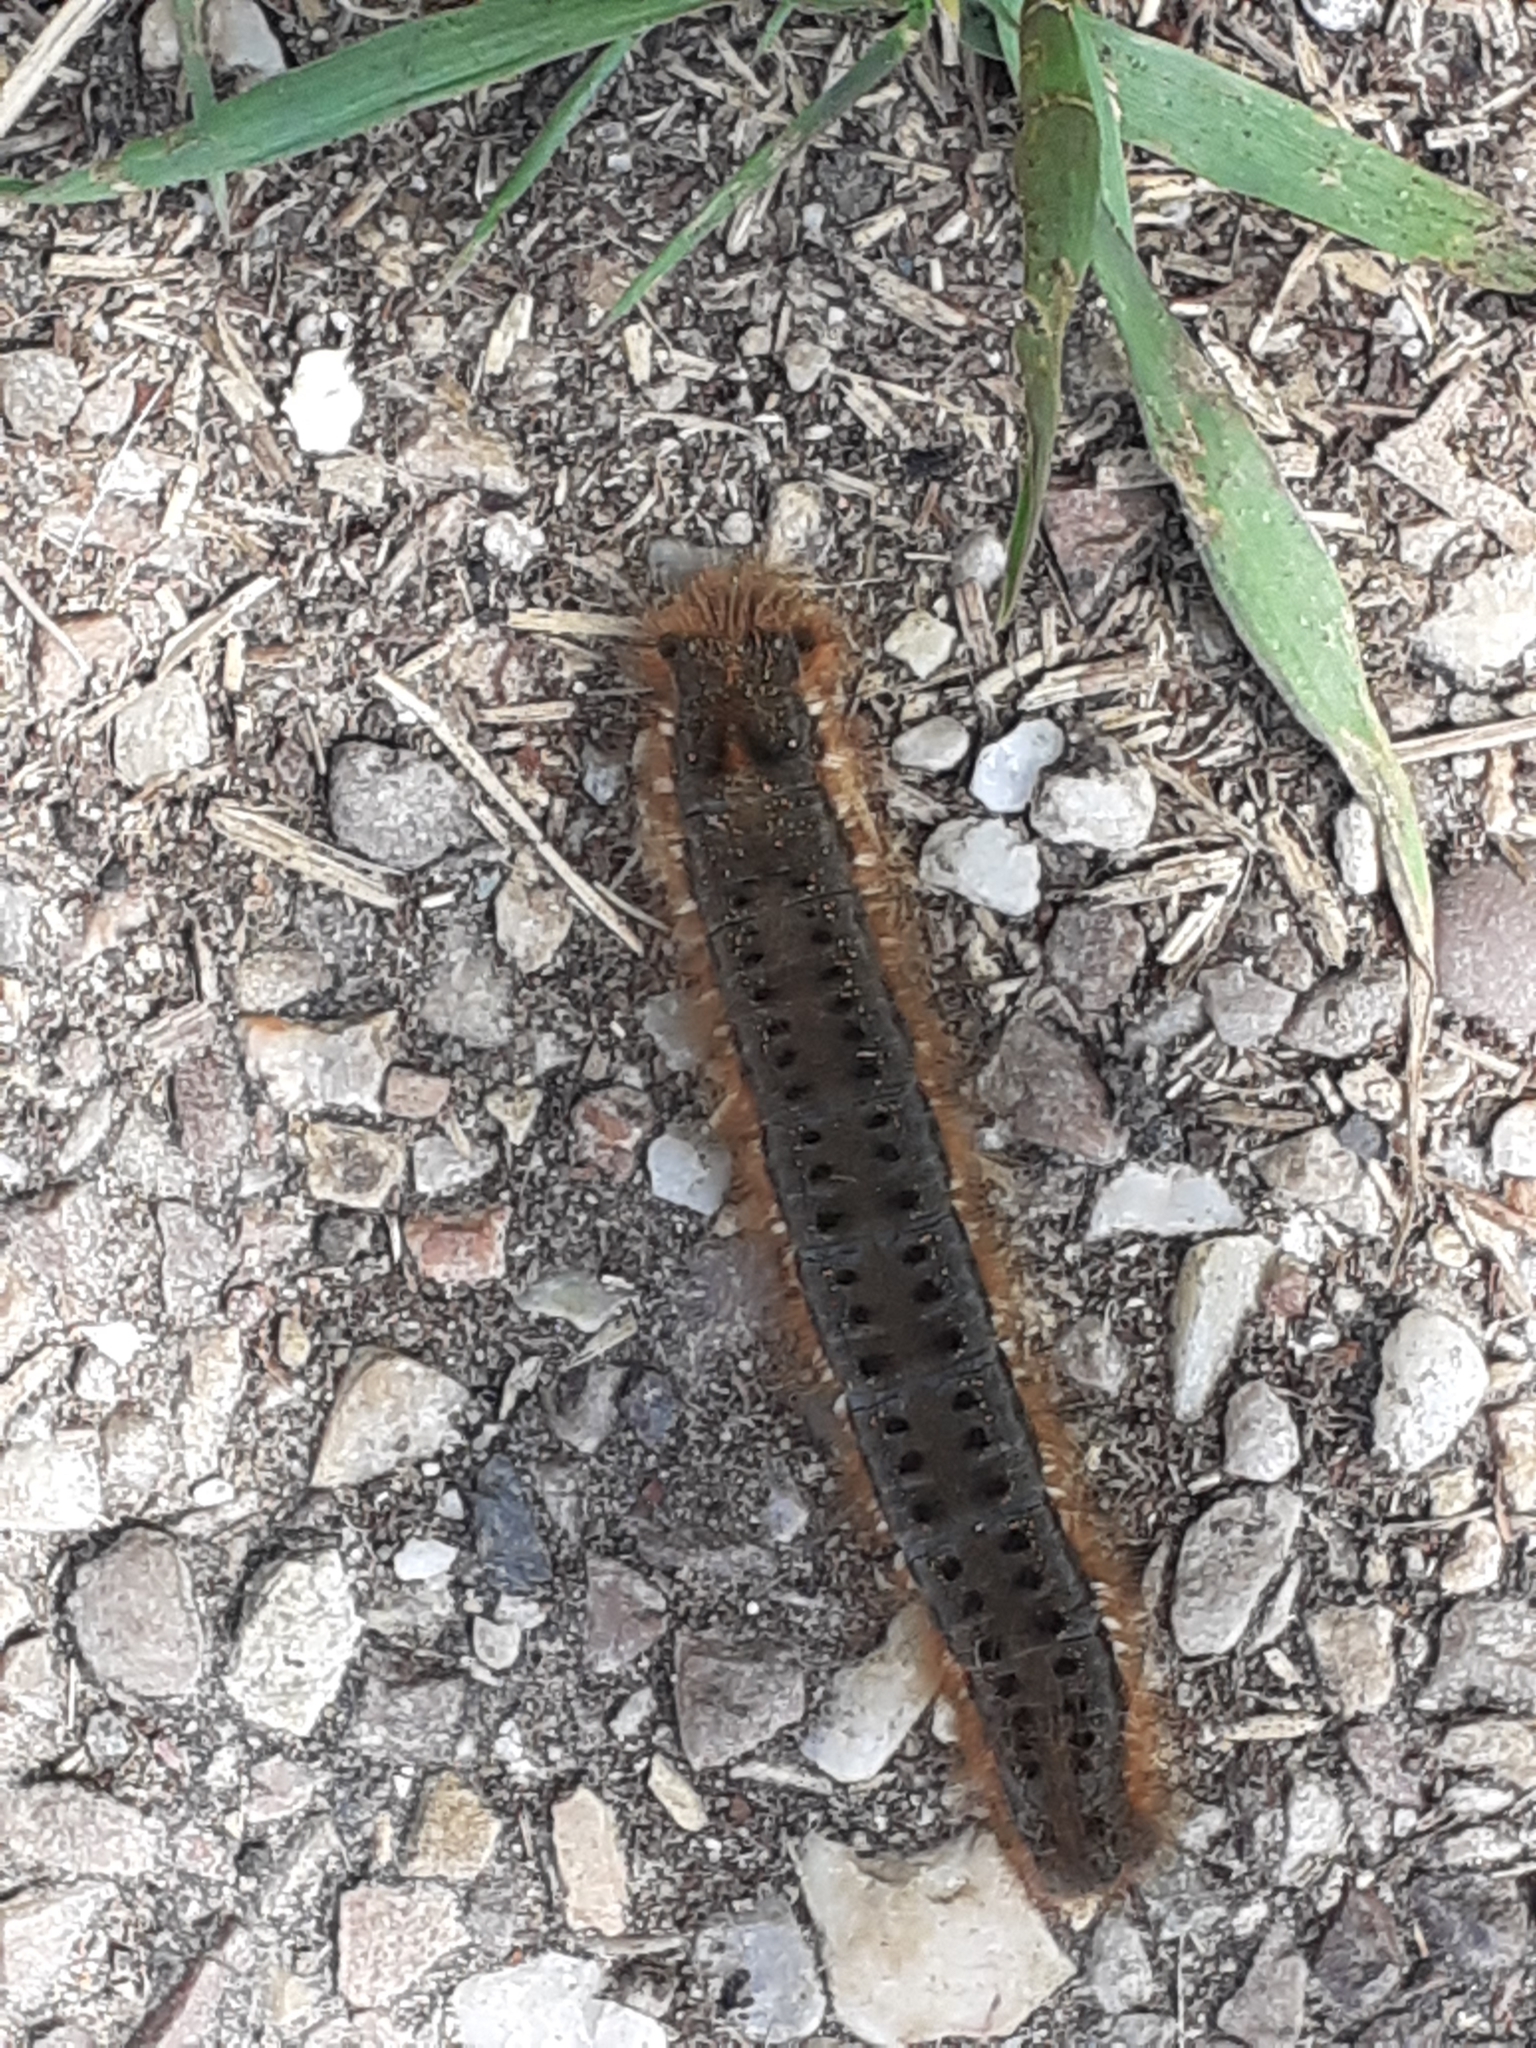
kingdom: Animalia
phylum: Arthropoda
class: Insecta
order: Lepidoptera
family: Lasiocampidae
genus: Euthrix
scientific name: Euthrix potatoria
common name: Drinker
